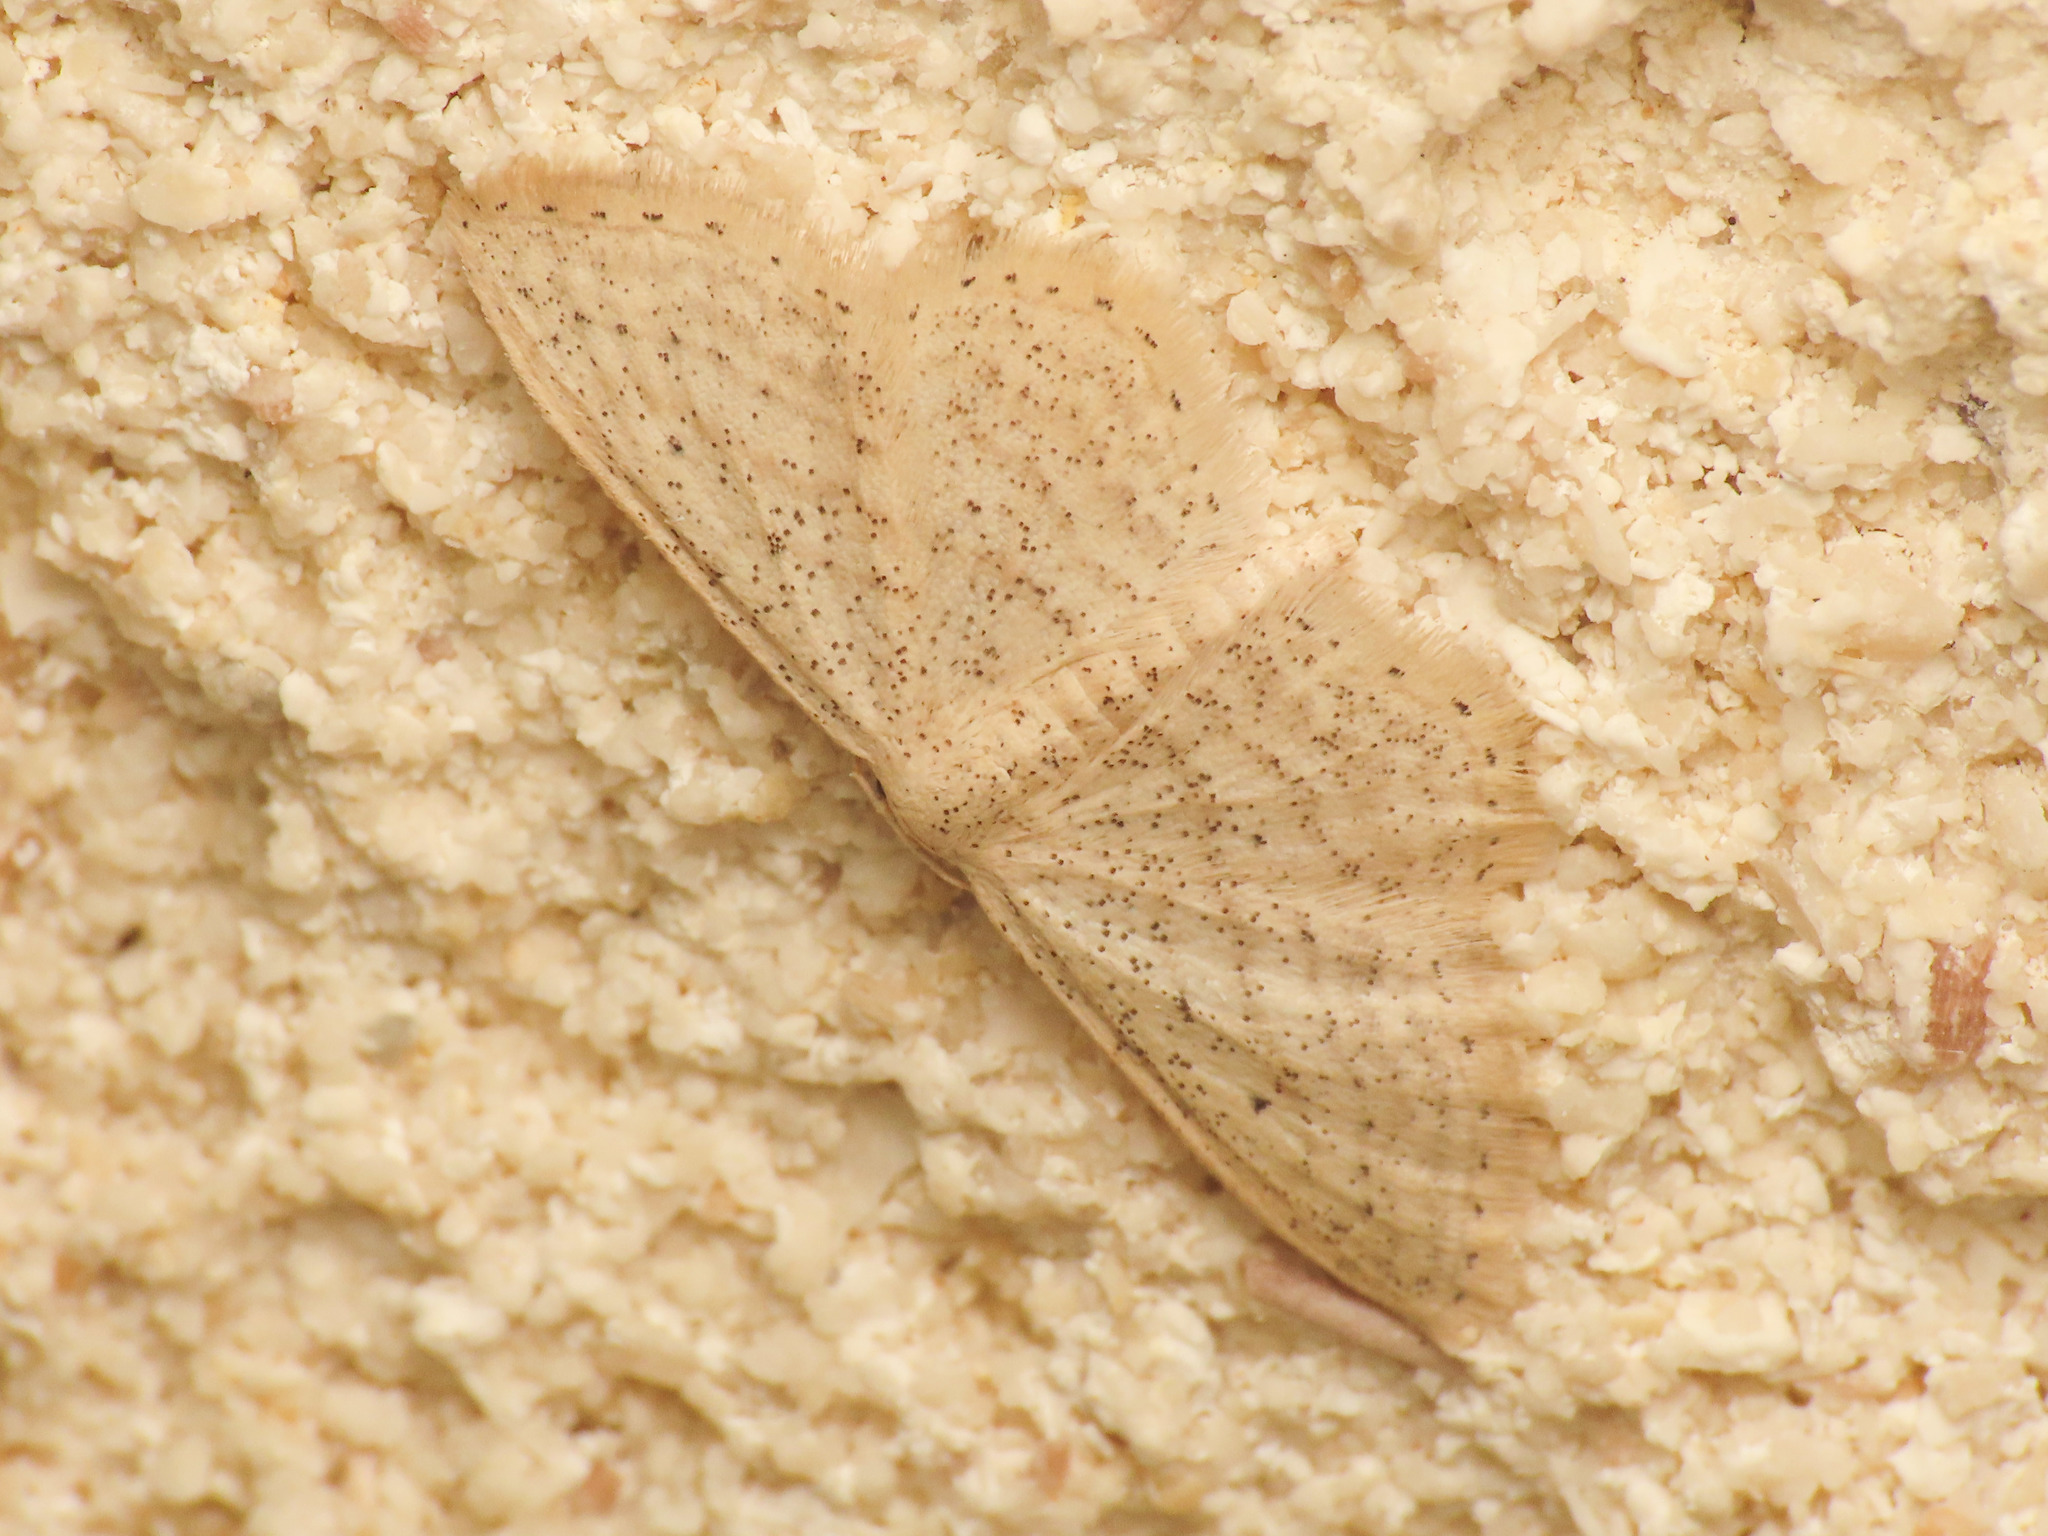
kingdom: Animalia
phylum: Arthropoda
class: Insecta
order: Lepidoptera
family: Geometridae
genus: Idaea
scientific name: Idaea elongaria
